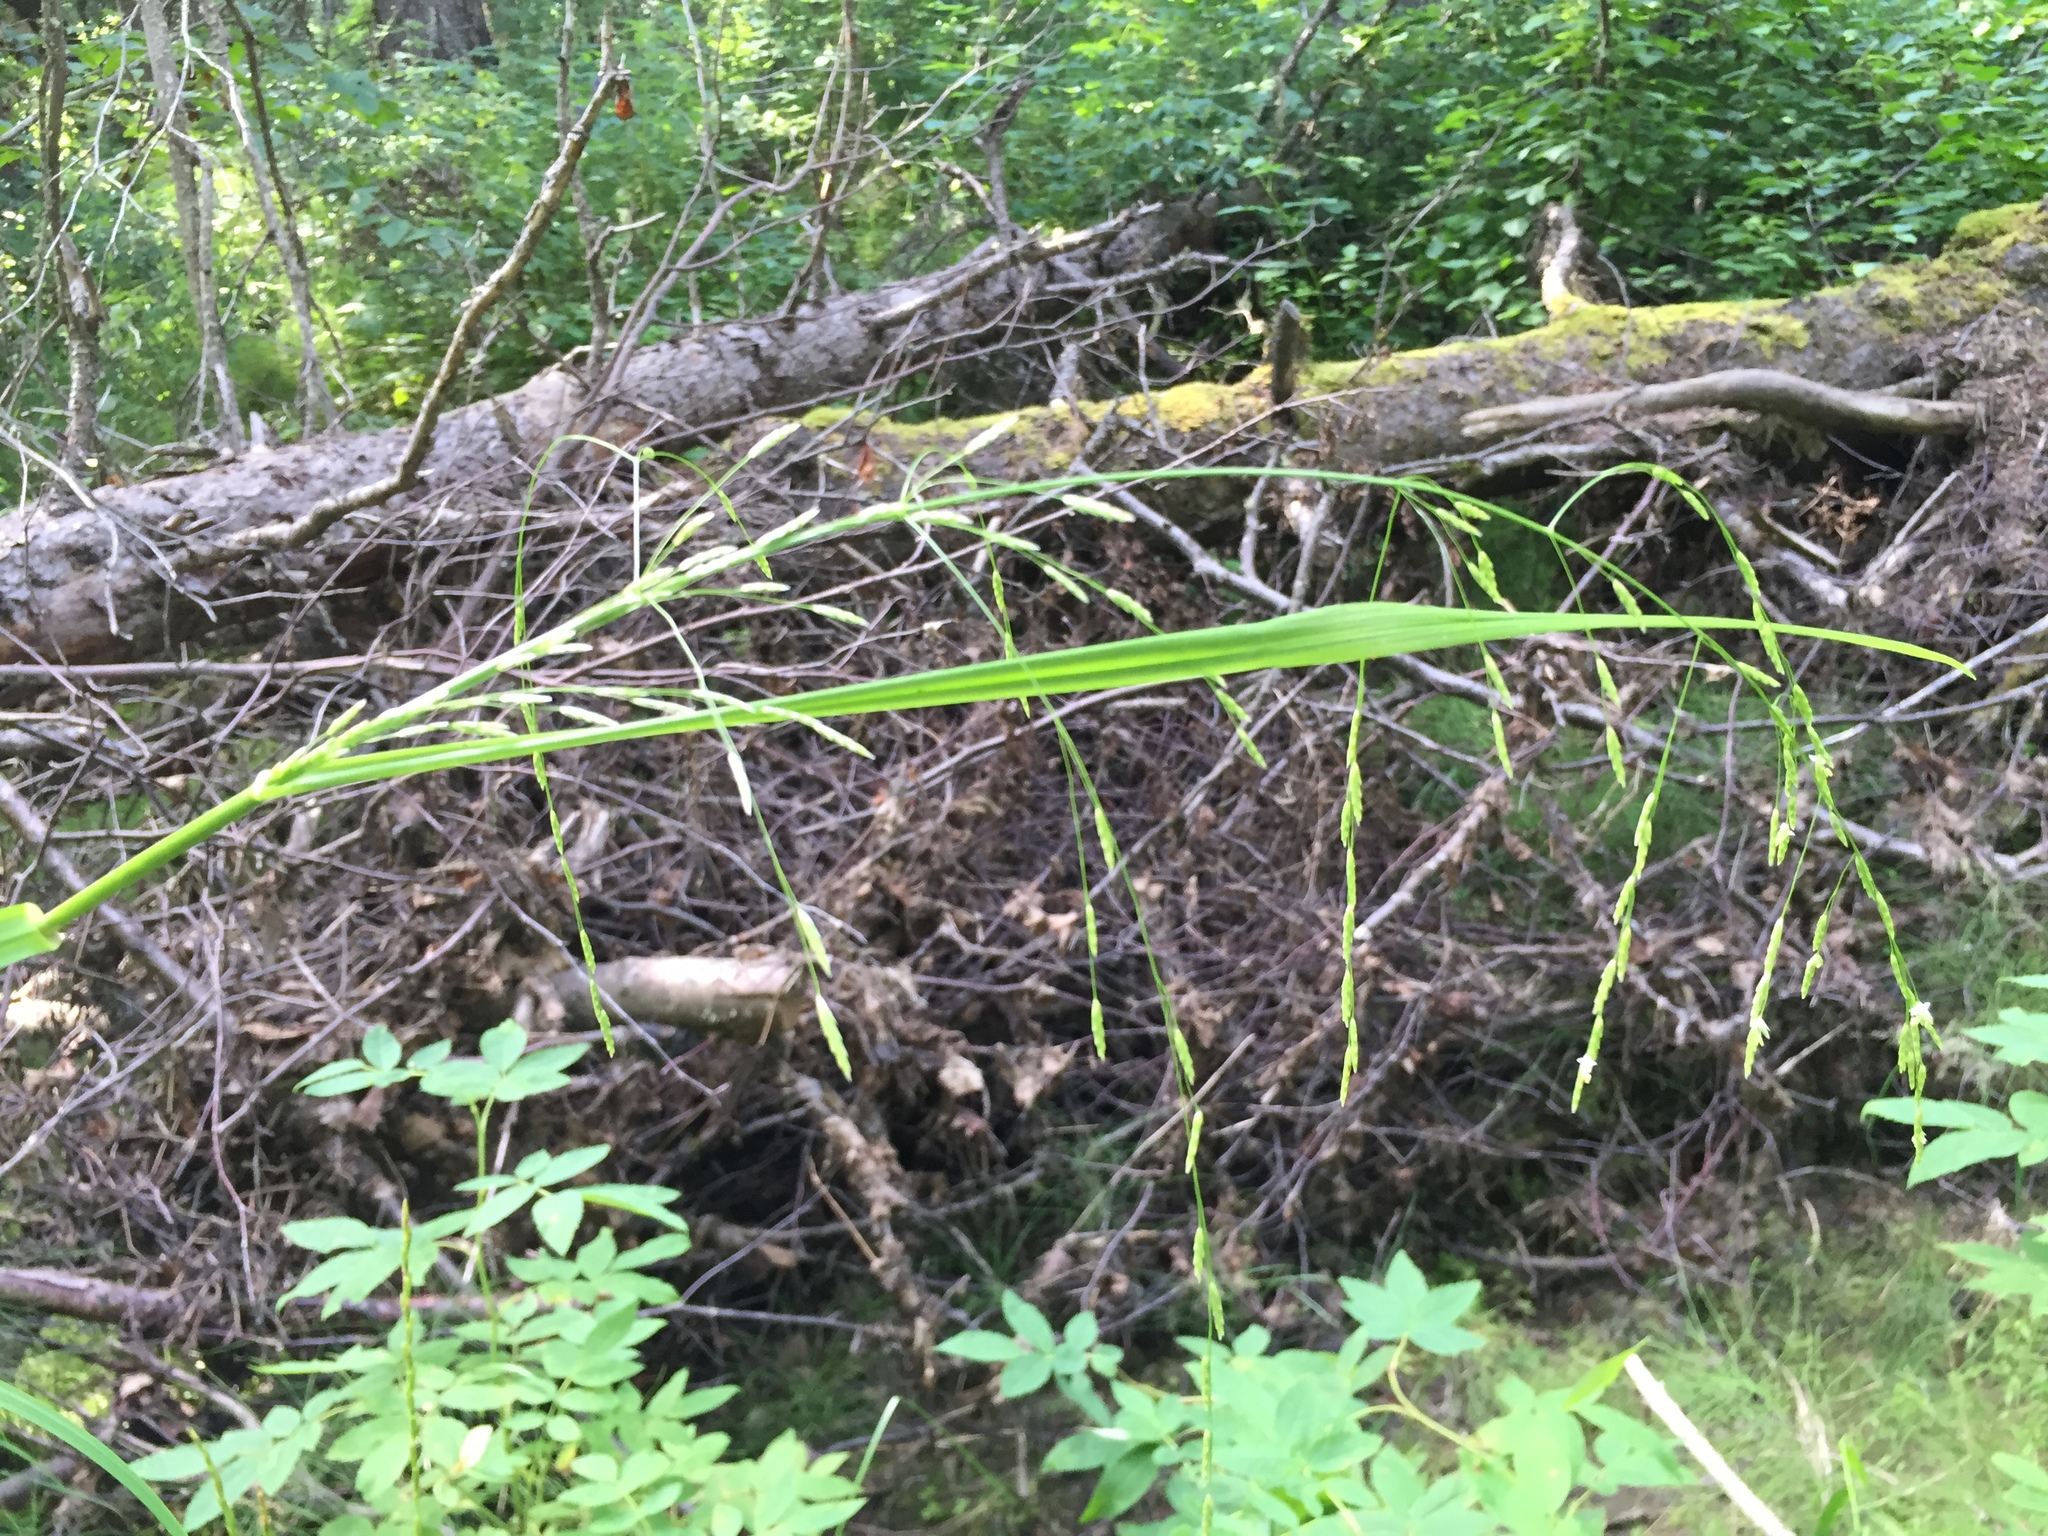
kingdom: Plantae
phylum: Tracheophyta
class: Liliopsida
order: Poales
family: Poaceae
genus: Glyceria
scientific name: Glyceria borealis
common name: Boreal glyceria
